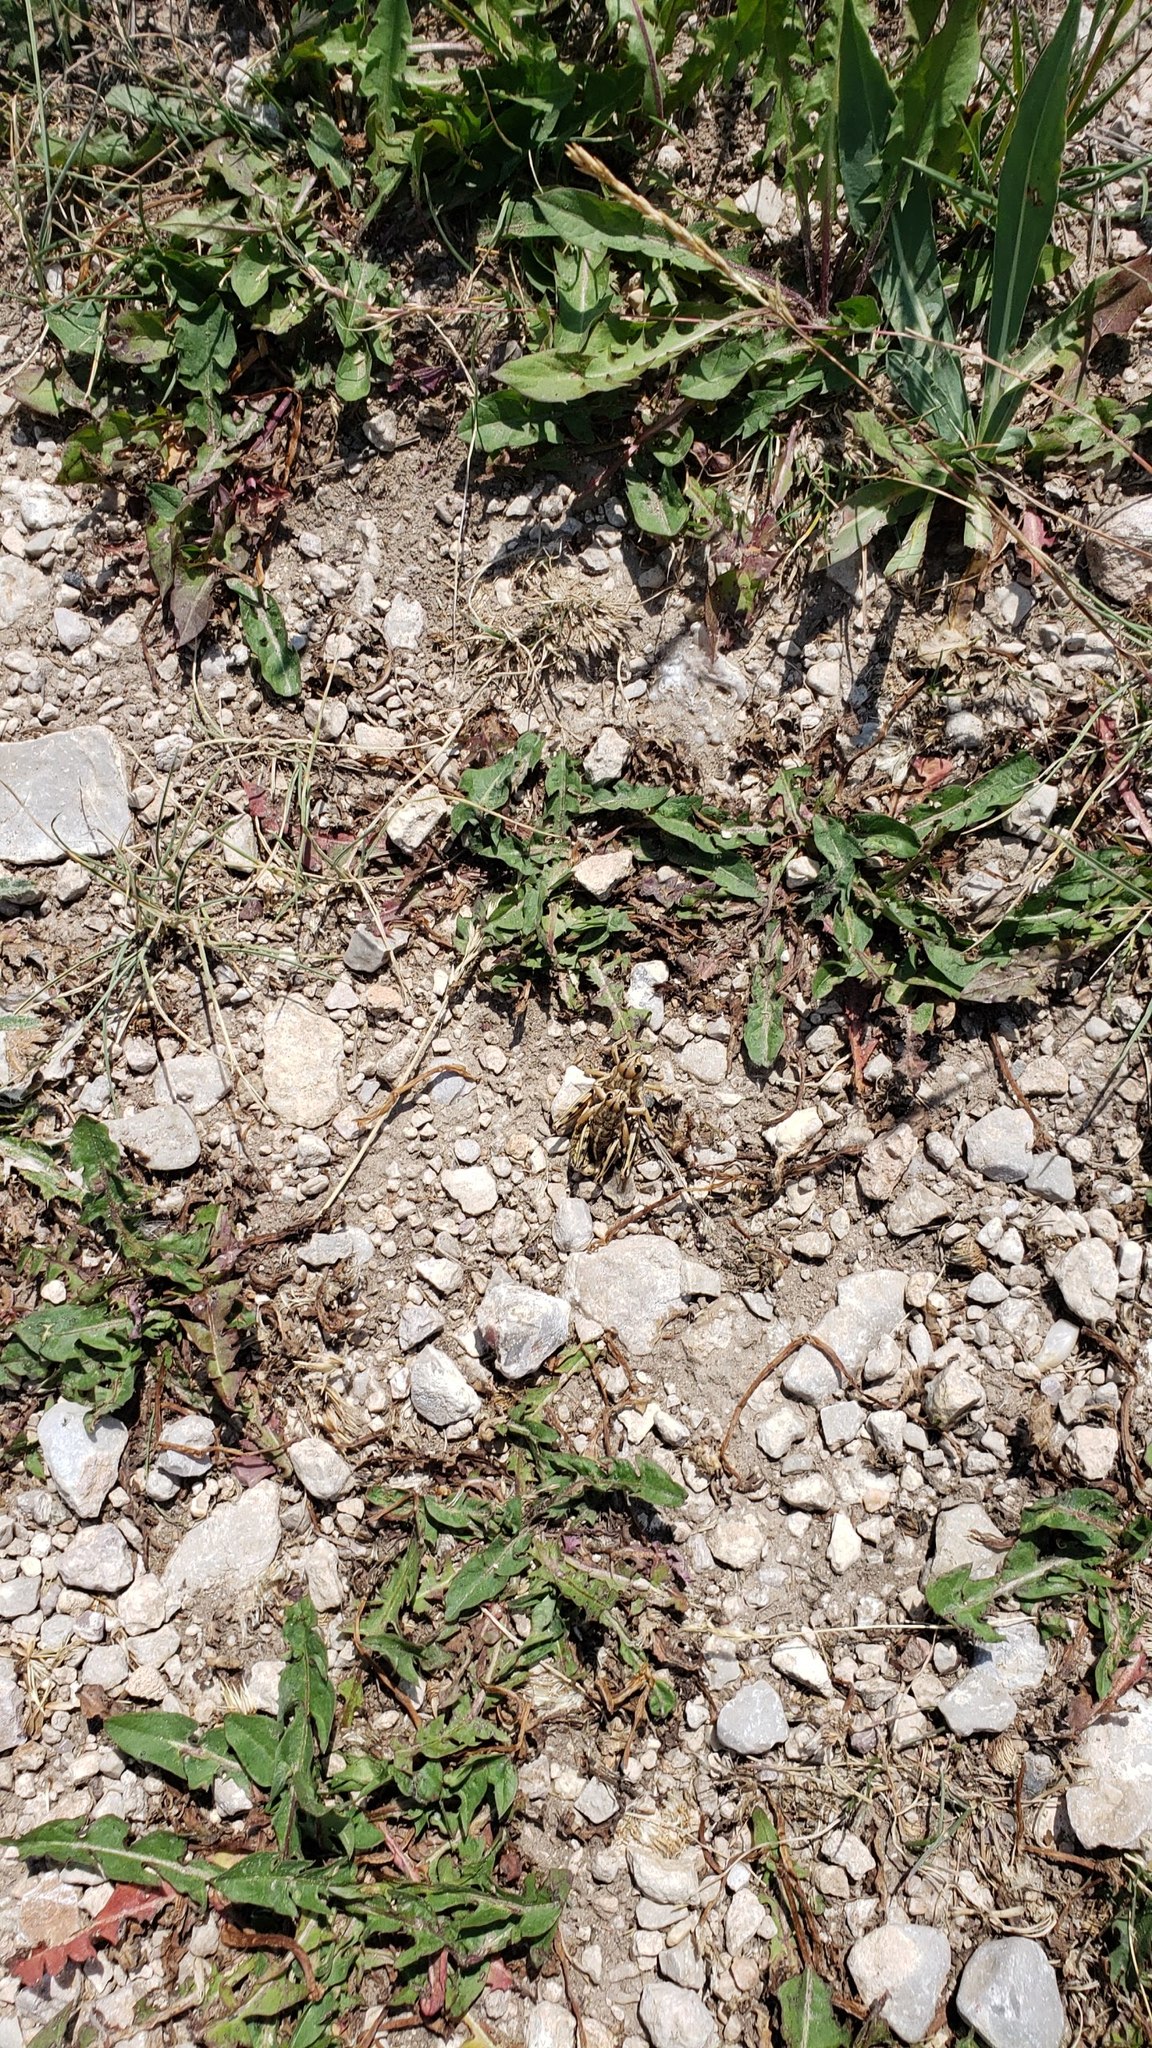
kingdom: Animalia
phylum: Arthropoda
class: Insecta
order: Orthoptera
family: Acrididae
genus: Bradynotes
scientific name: Bradynotes obesa
